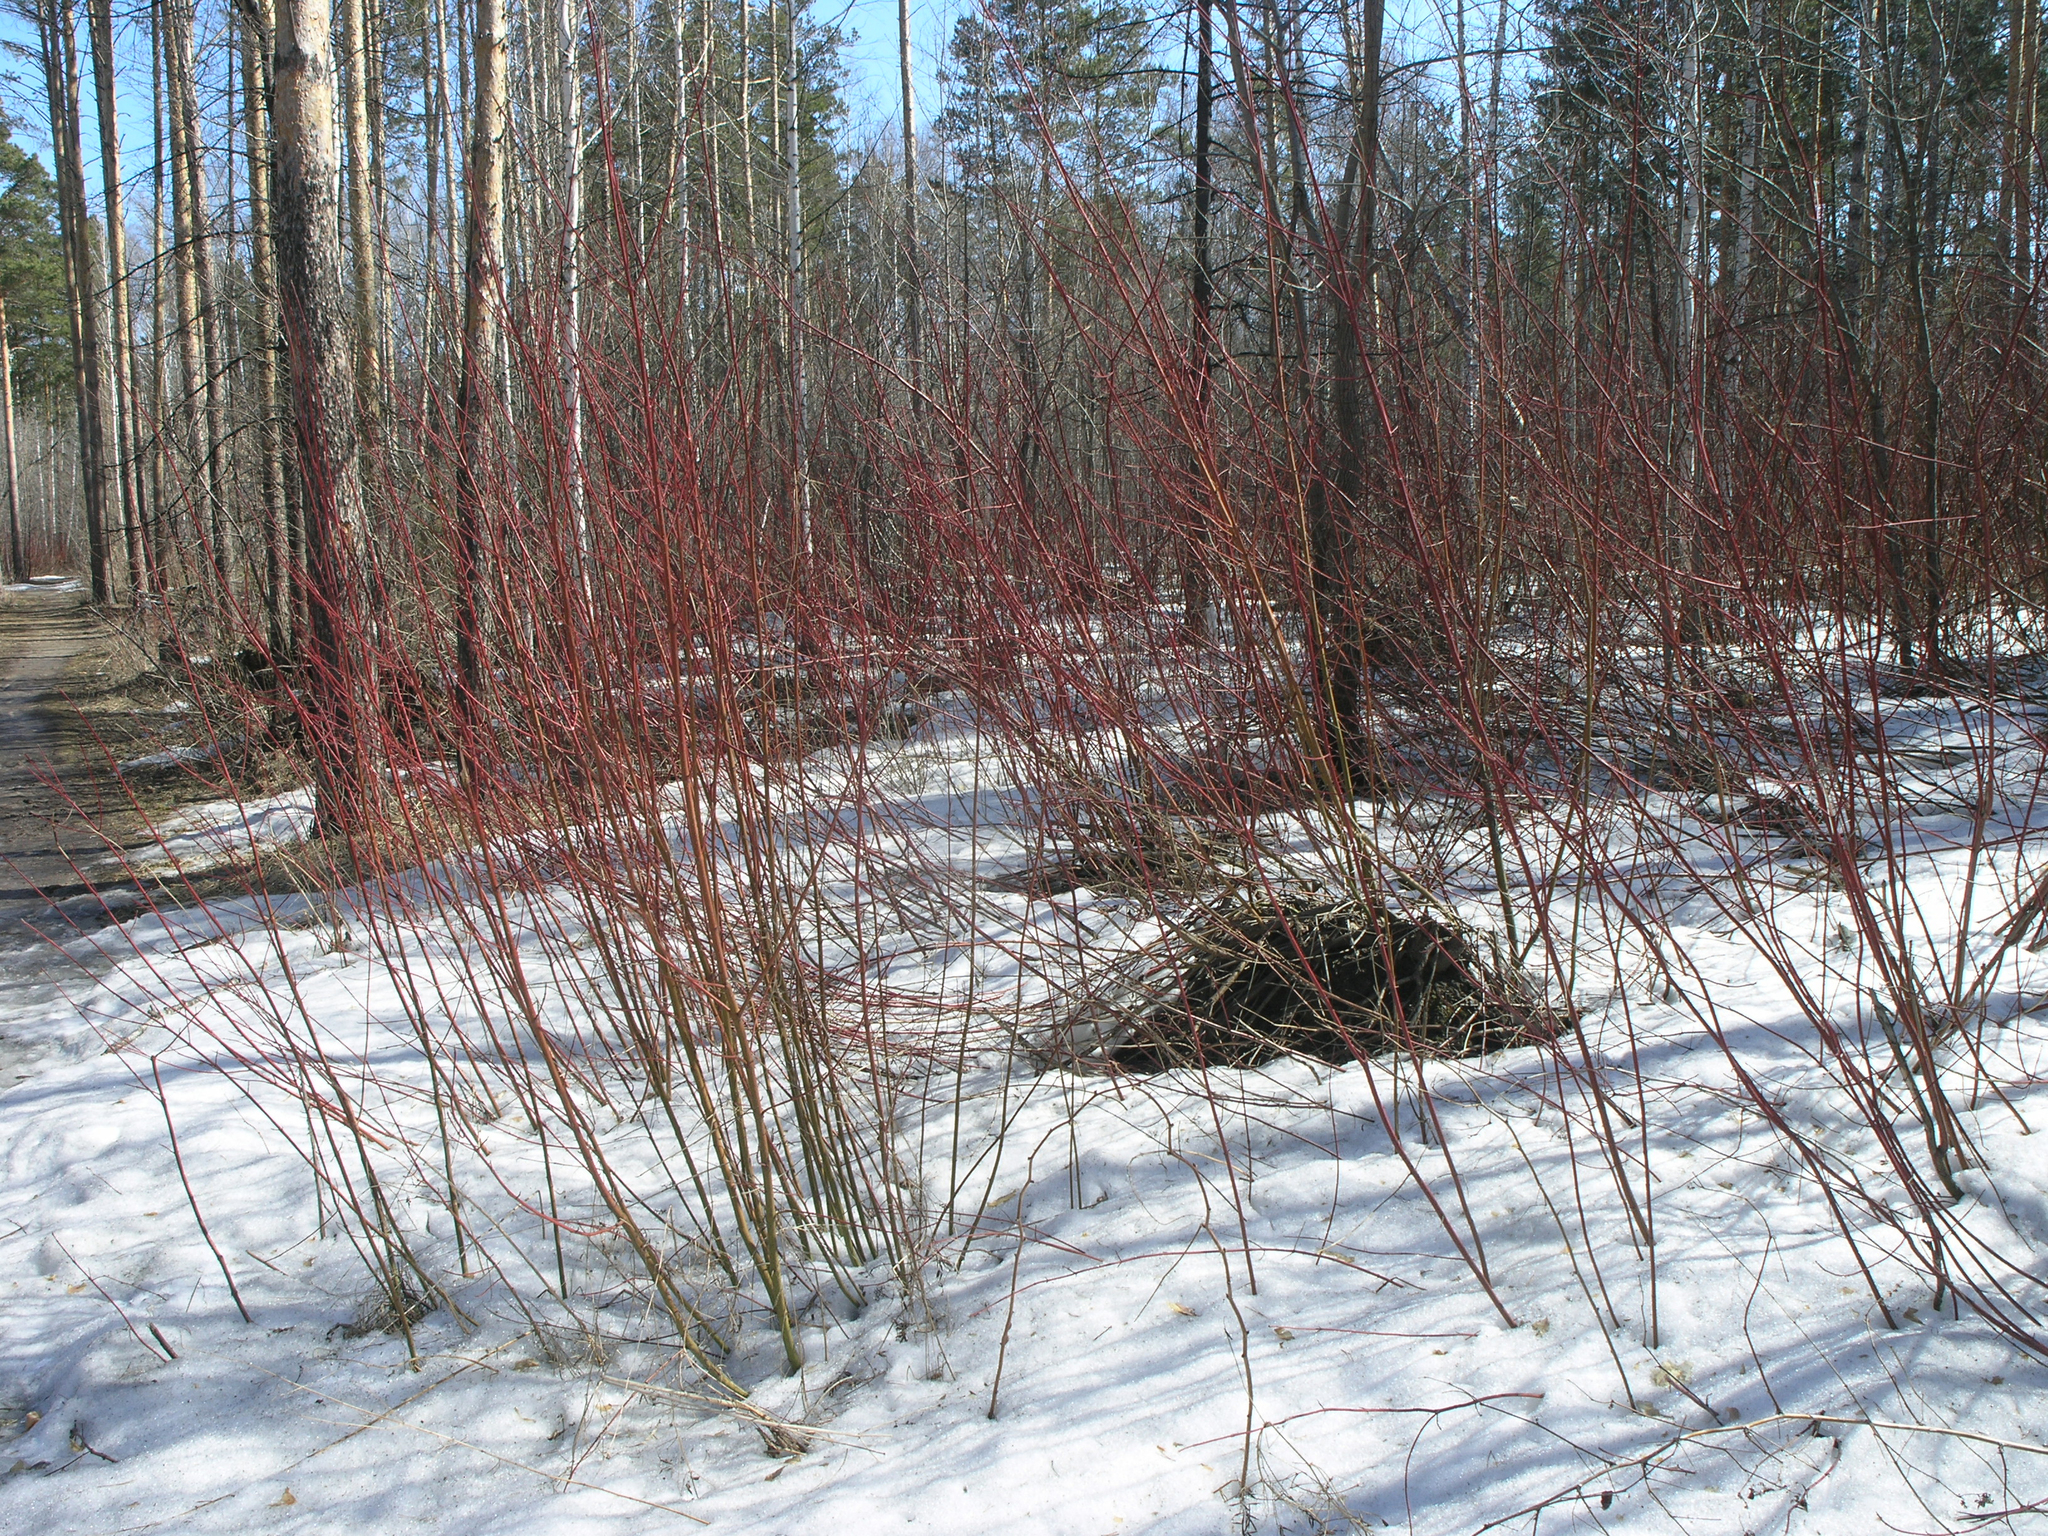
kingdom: Plantae
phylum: Tracheophyta
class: Magnoliopsida
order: Cornales
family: Cornaceae
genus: Cornus
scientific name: Cornus alba
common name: White dogwood
